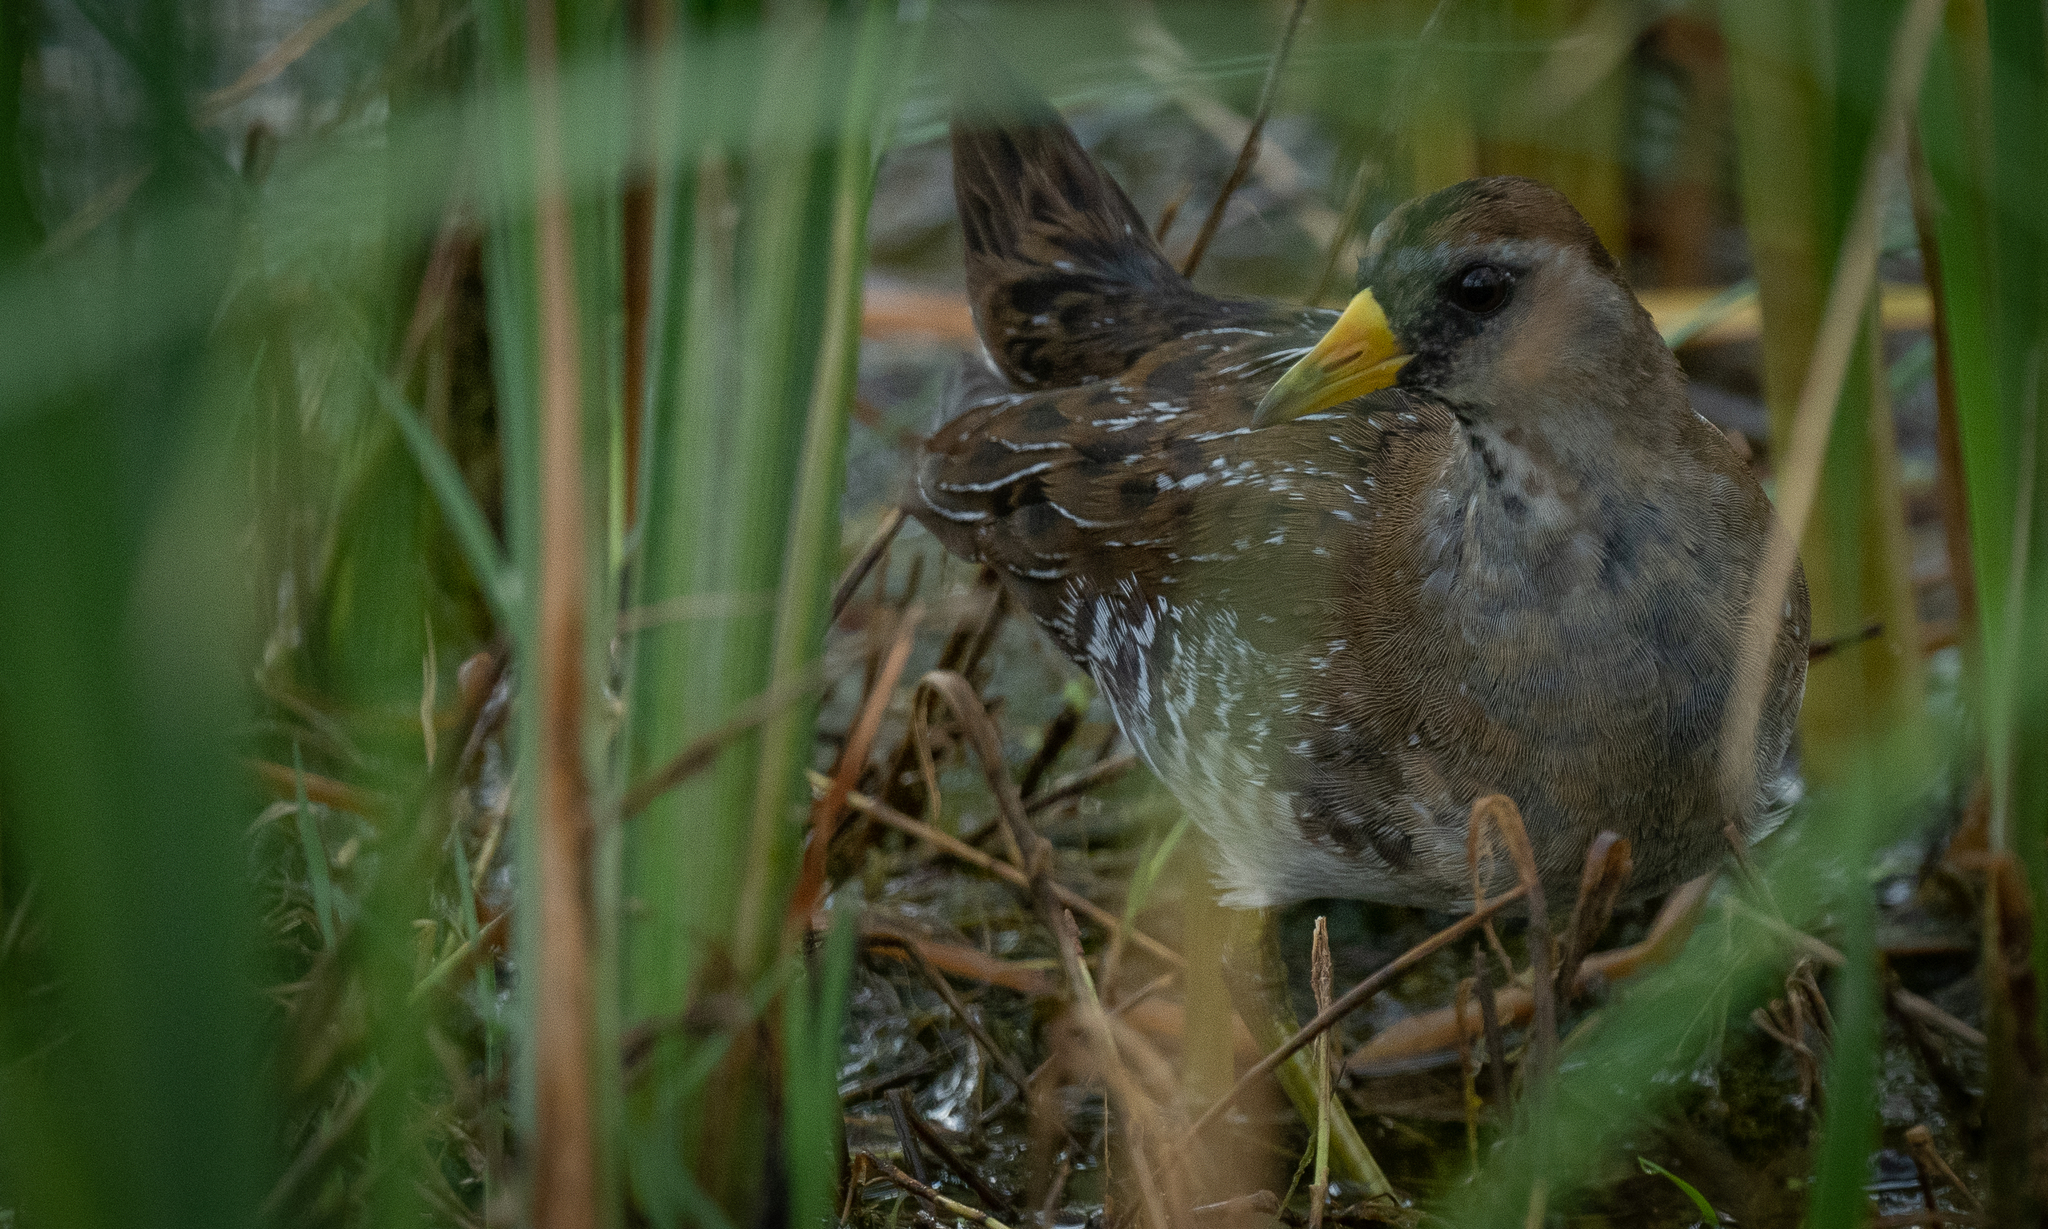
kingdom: Animalia
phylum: Chordata
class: Aves
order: Gruiformes
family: Rallidae
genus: Porzana
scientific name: Porzana carolina
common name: Sora
